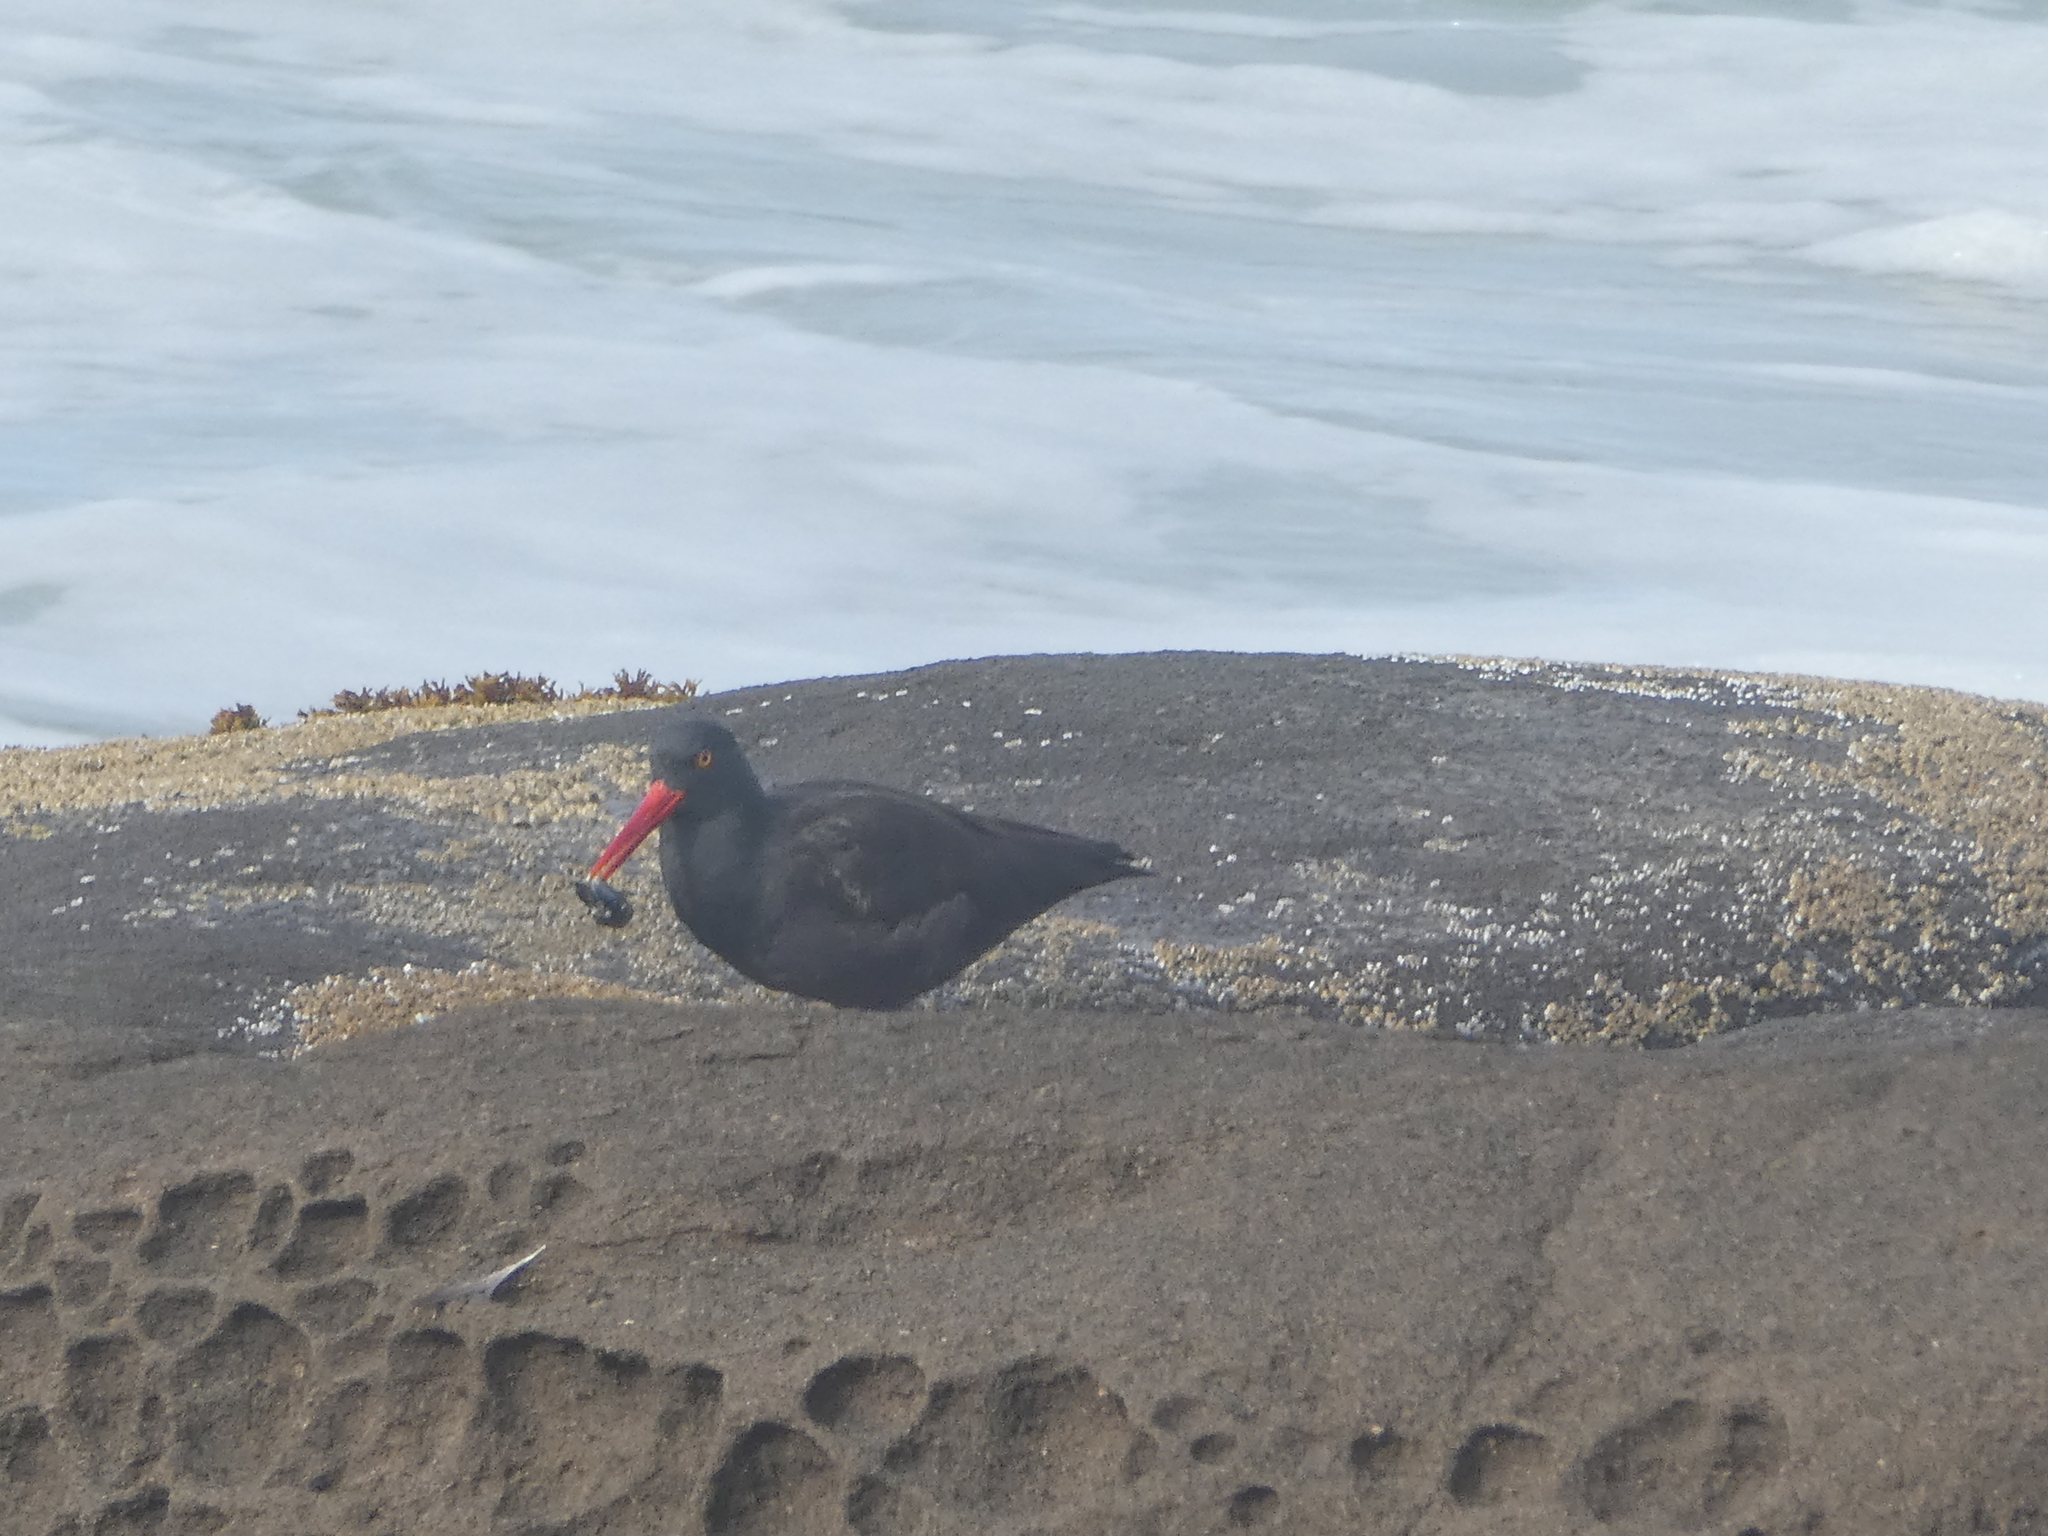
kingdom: Animalia
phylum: Chordata
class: Aves
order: Charadriiformes
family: Haematopodidae
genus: Haematopus
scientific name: Haematopus bachmani
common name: Black oystercatcher
